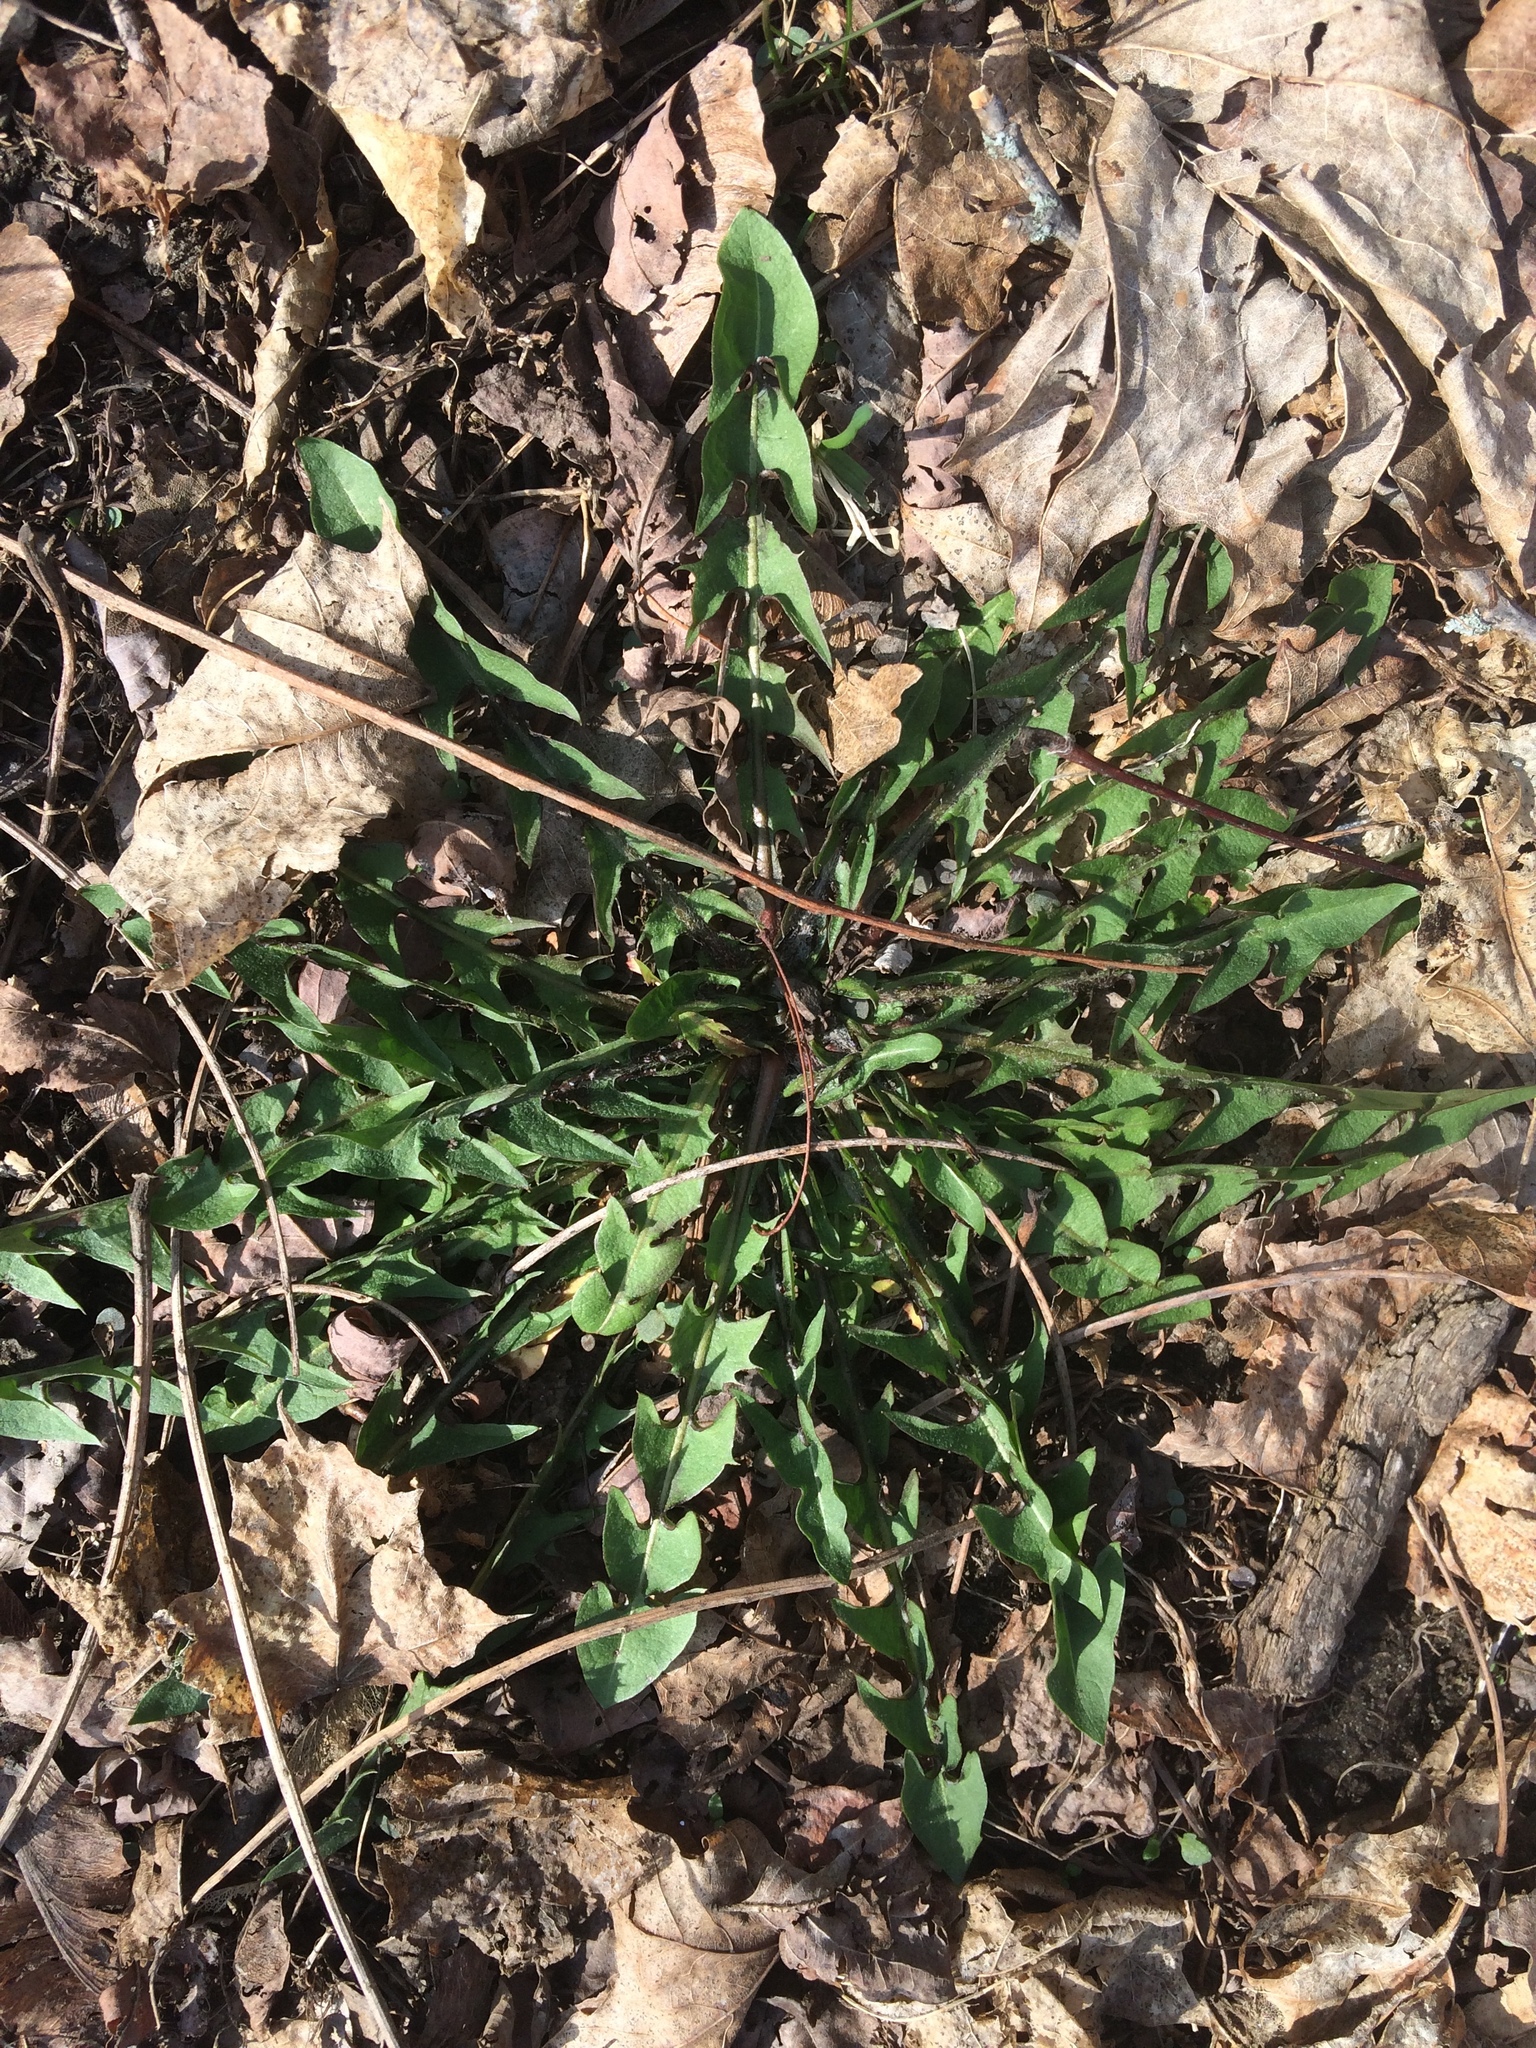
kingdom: Plantae
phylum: Tracheophyta
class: Magnoliopsida
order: Asterales
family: Asteraceae
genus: Taraxacum
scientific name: Taraxacum
